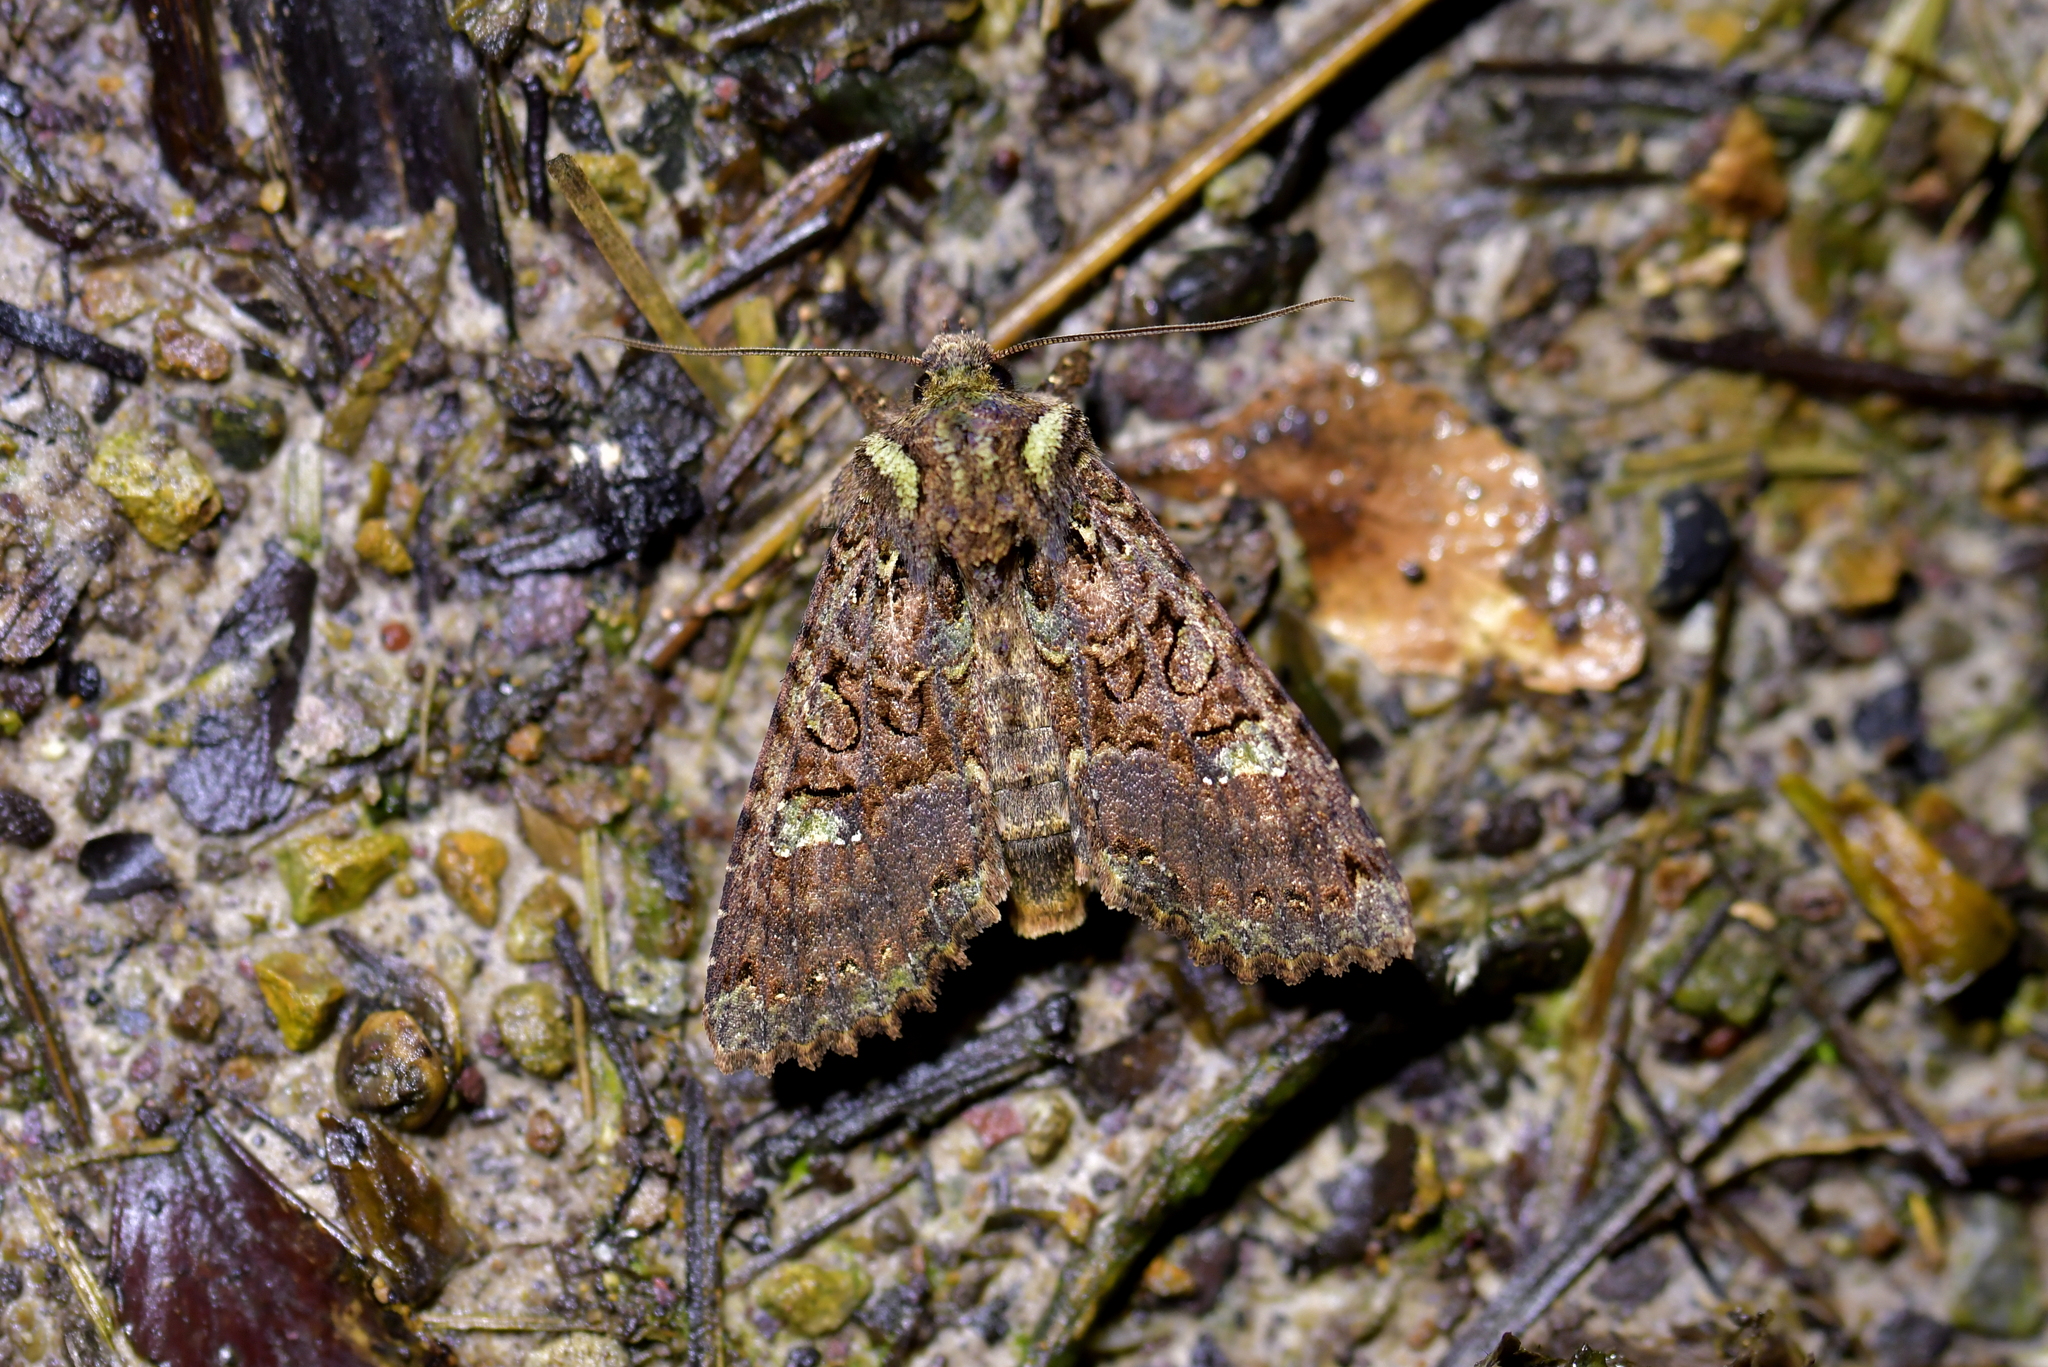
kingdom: Animalia
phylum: Arthropoda
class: Insecta
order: Lepidoptera
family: Noctuidae
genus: Meterana
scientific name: Meterana
